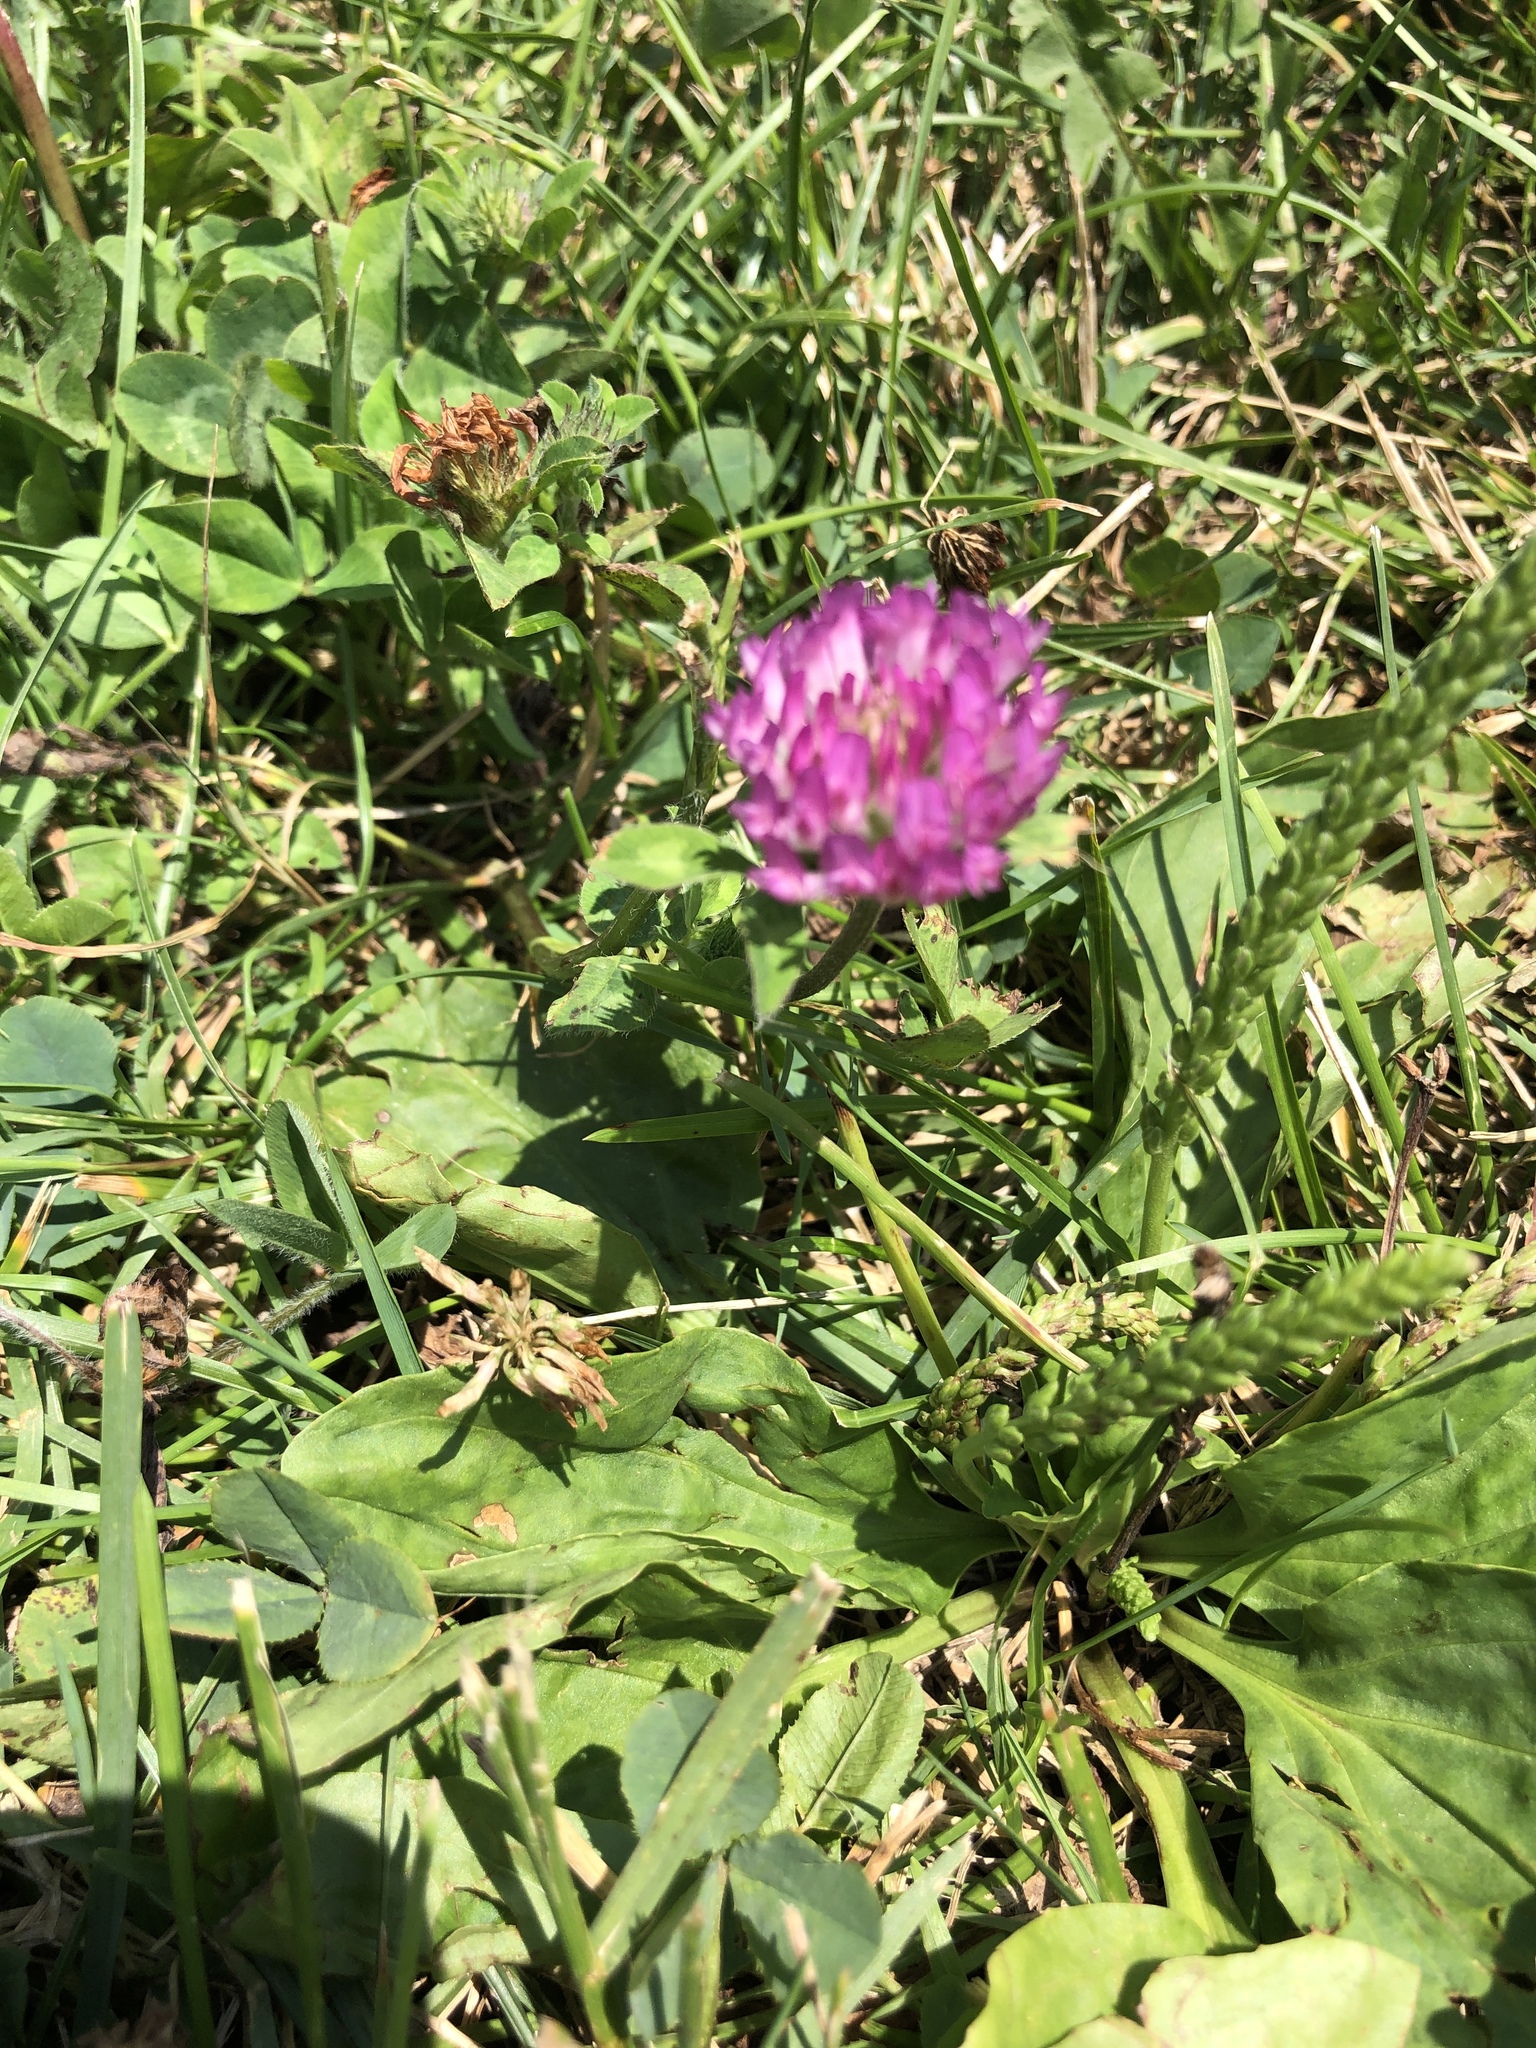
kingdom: Plantae
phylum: Tracheophyta
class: Magnoliopsida
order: Fabales
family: Fabaceae
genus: Trifolium
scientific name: Trifolium pratense
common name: Red clover
